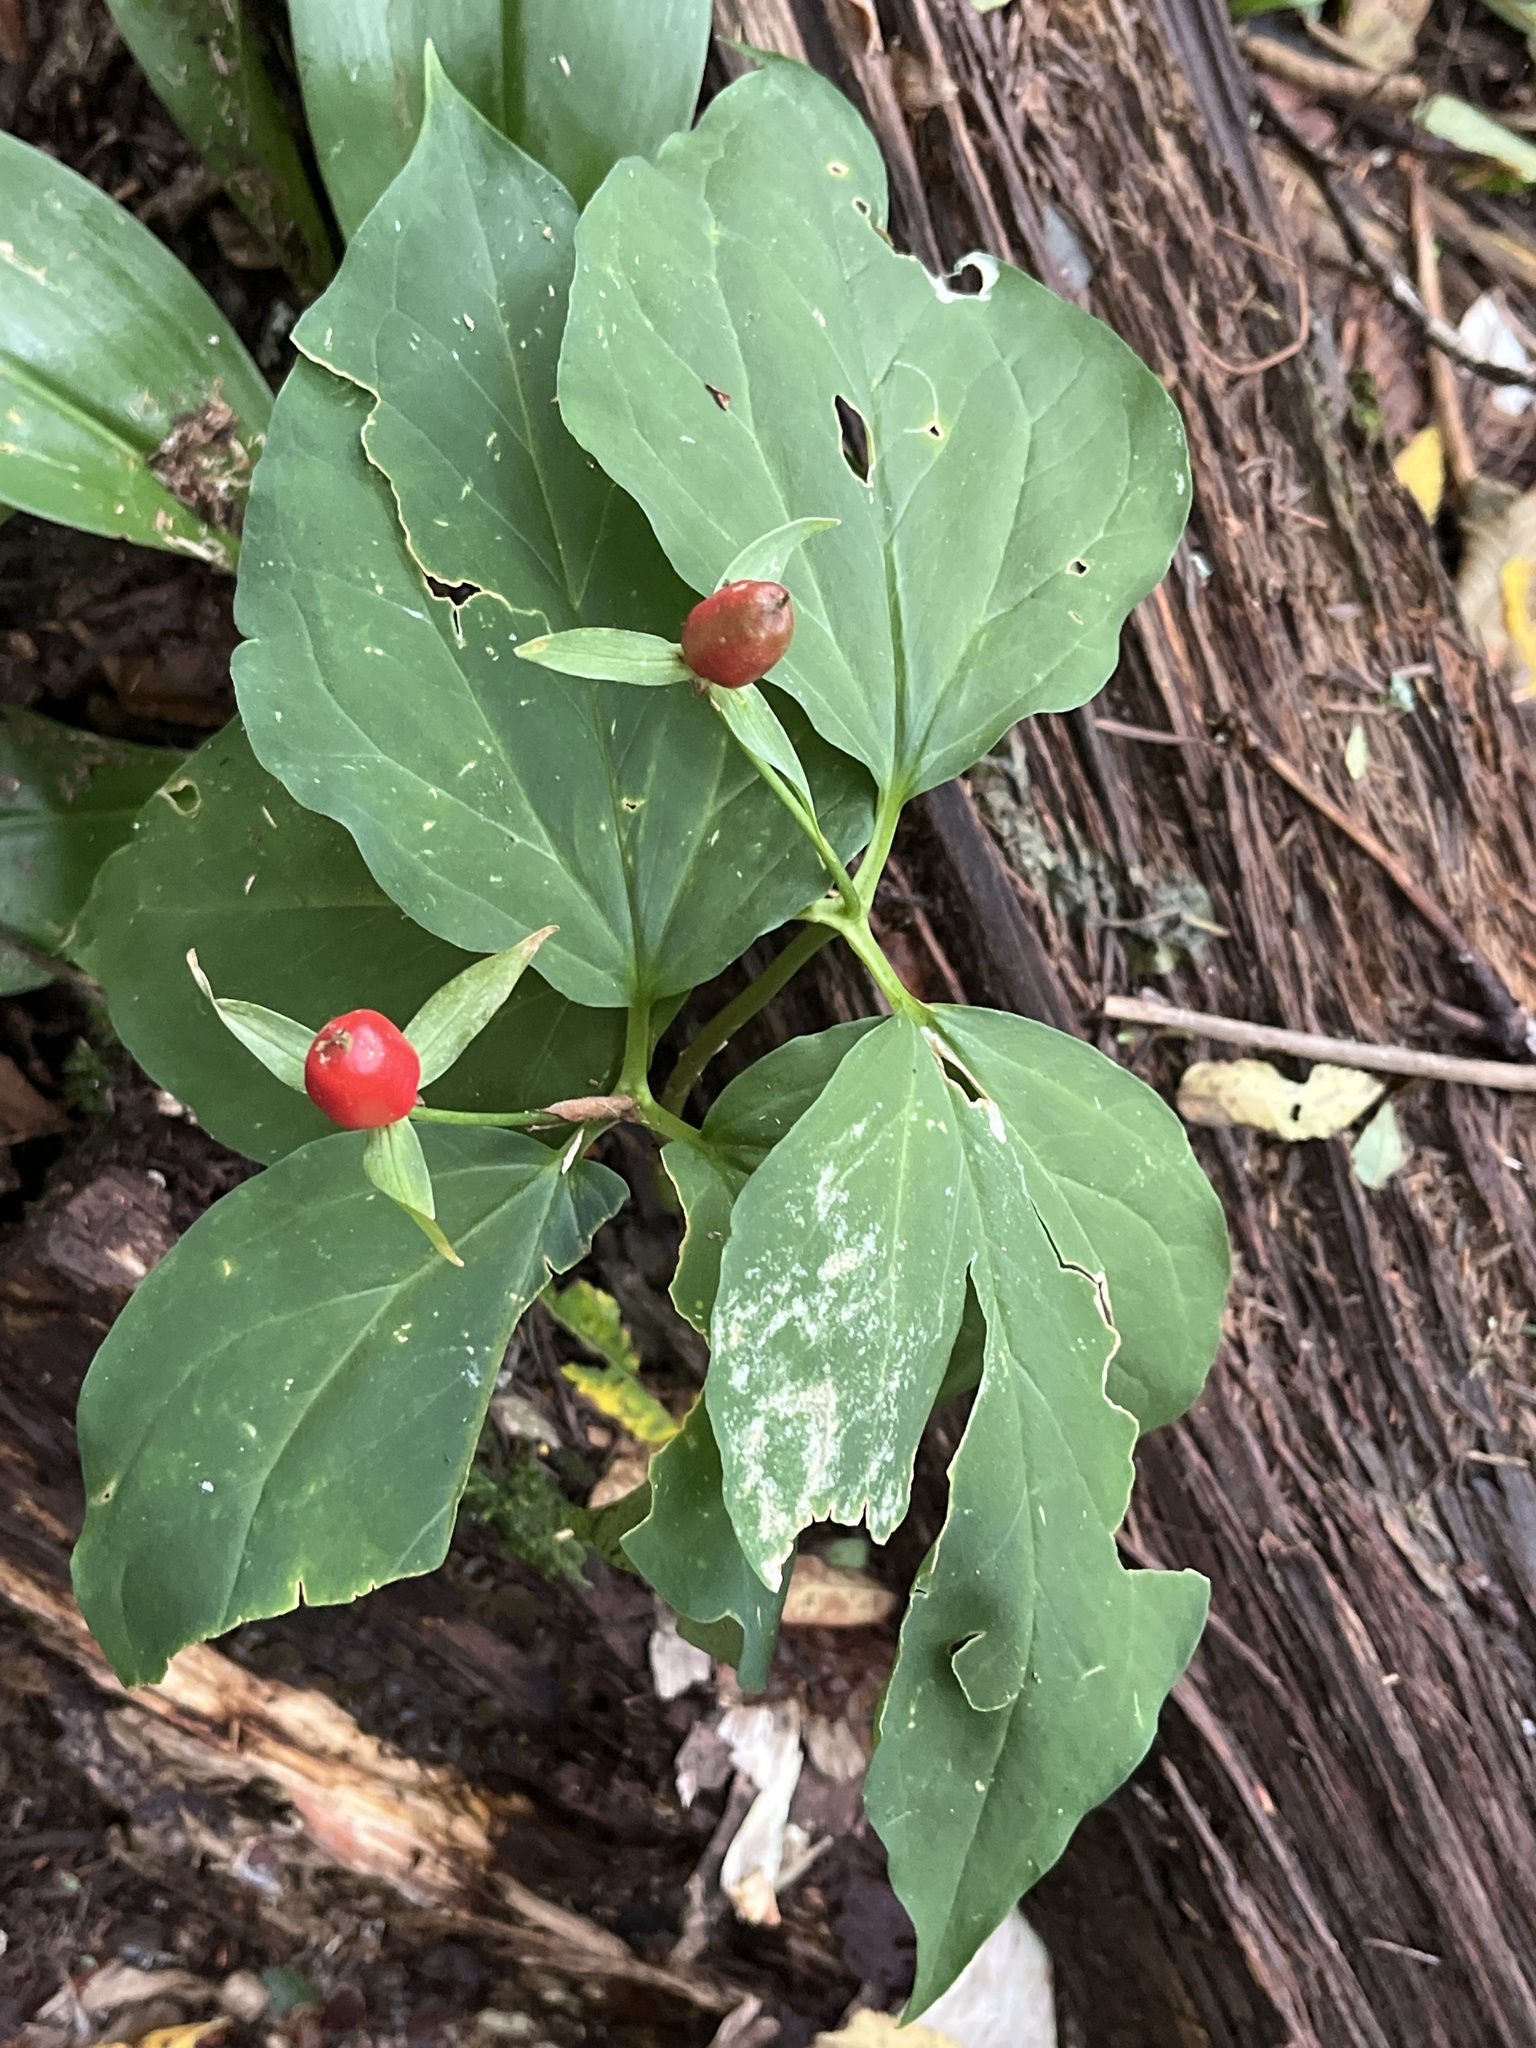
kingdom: Plantae
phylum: Tracheophyta
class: Liliopsida
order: Liliales
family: Melanthiaceae
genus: Trillium
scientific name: Trillium undulatum
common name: Paint trillium
